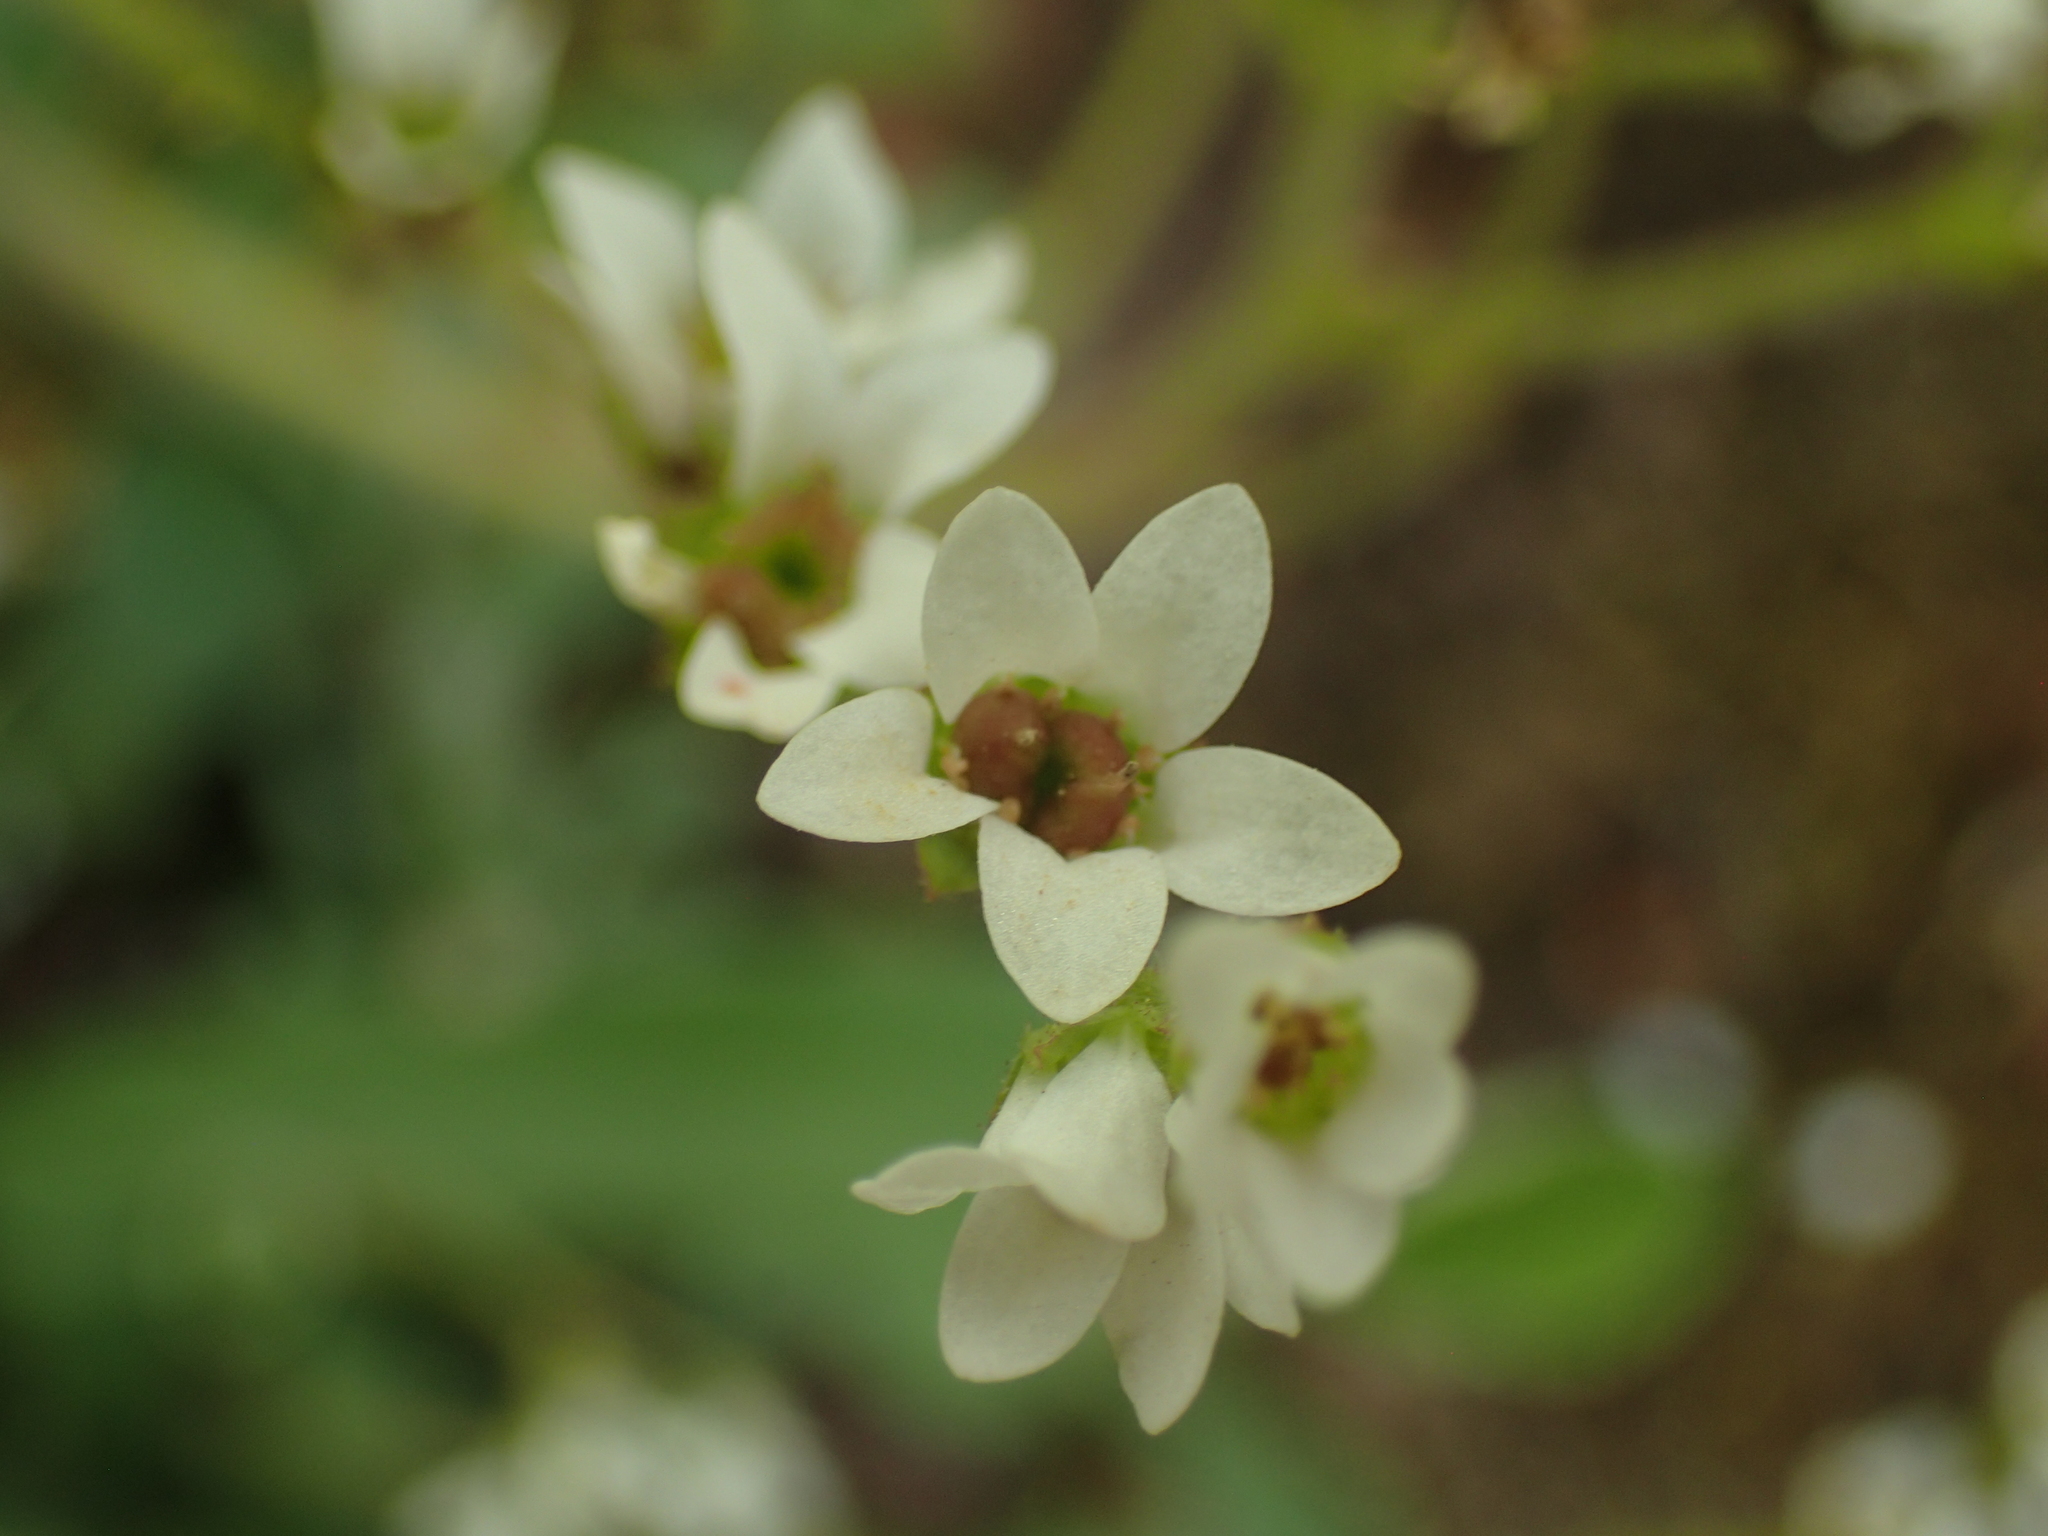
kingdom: Plantae
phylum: Tracheophyta
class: Magnoliopsida
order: Saxifragales
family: Saxifragaceae
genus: Micranthes
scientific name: Micranthes virginiensis
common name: Early saxifrage
